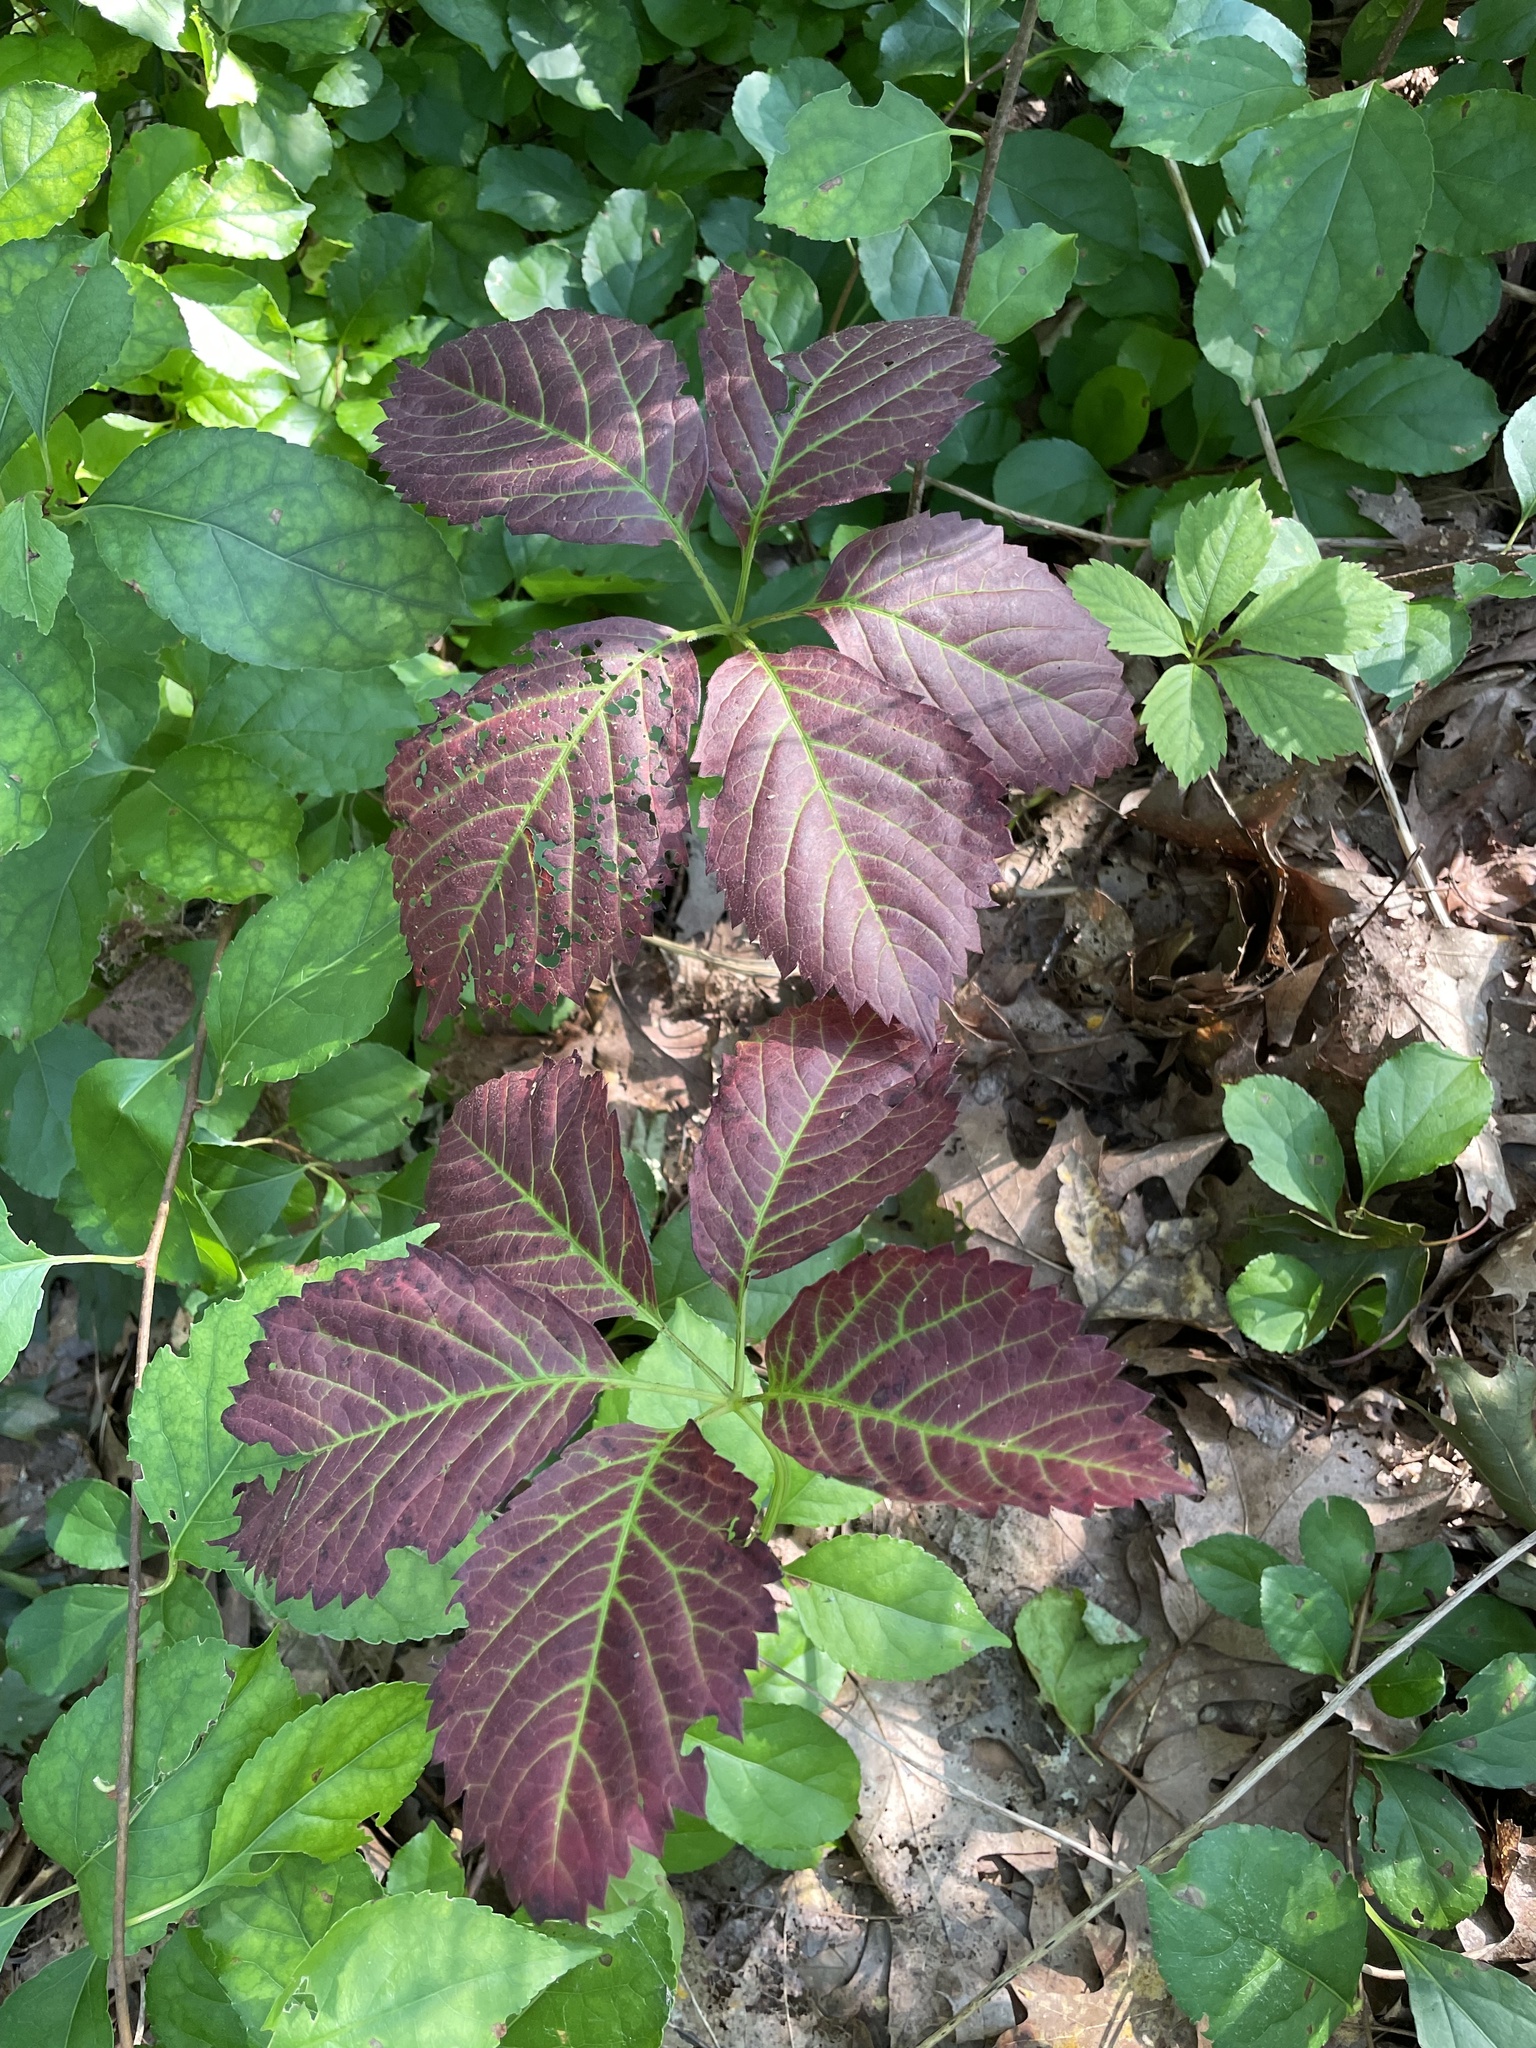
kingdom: Plantae
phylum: Tracheophyta
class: Magnoliopsida
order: Vitales
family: Vitaceae
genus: Parthenocissus
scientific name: Parthenocissus inserta
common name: False virginia-creeper
